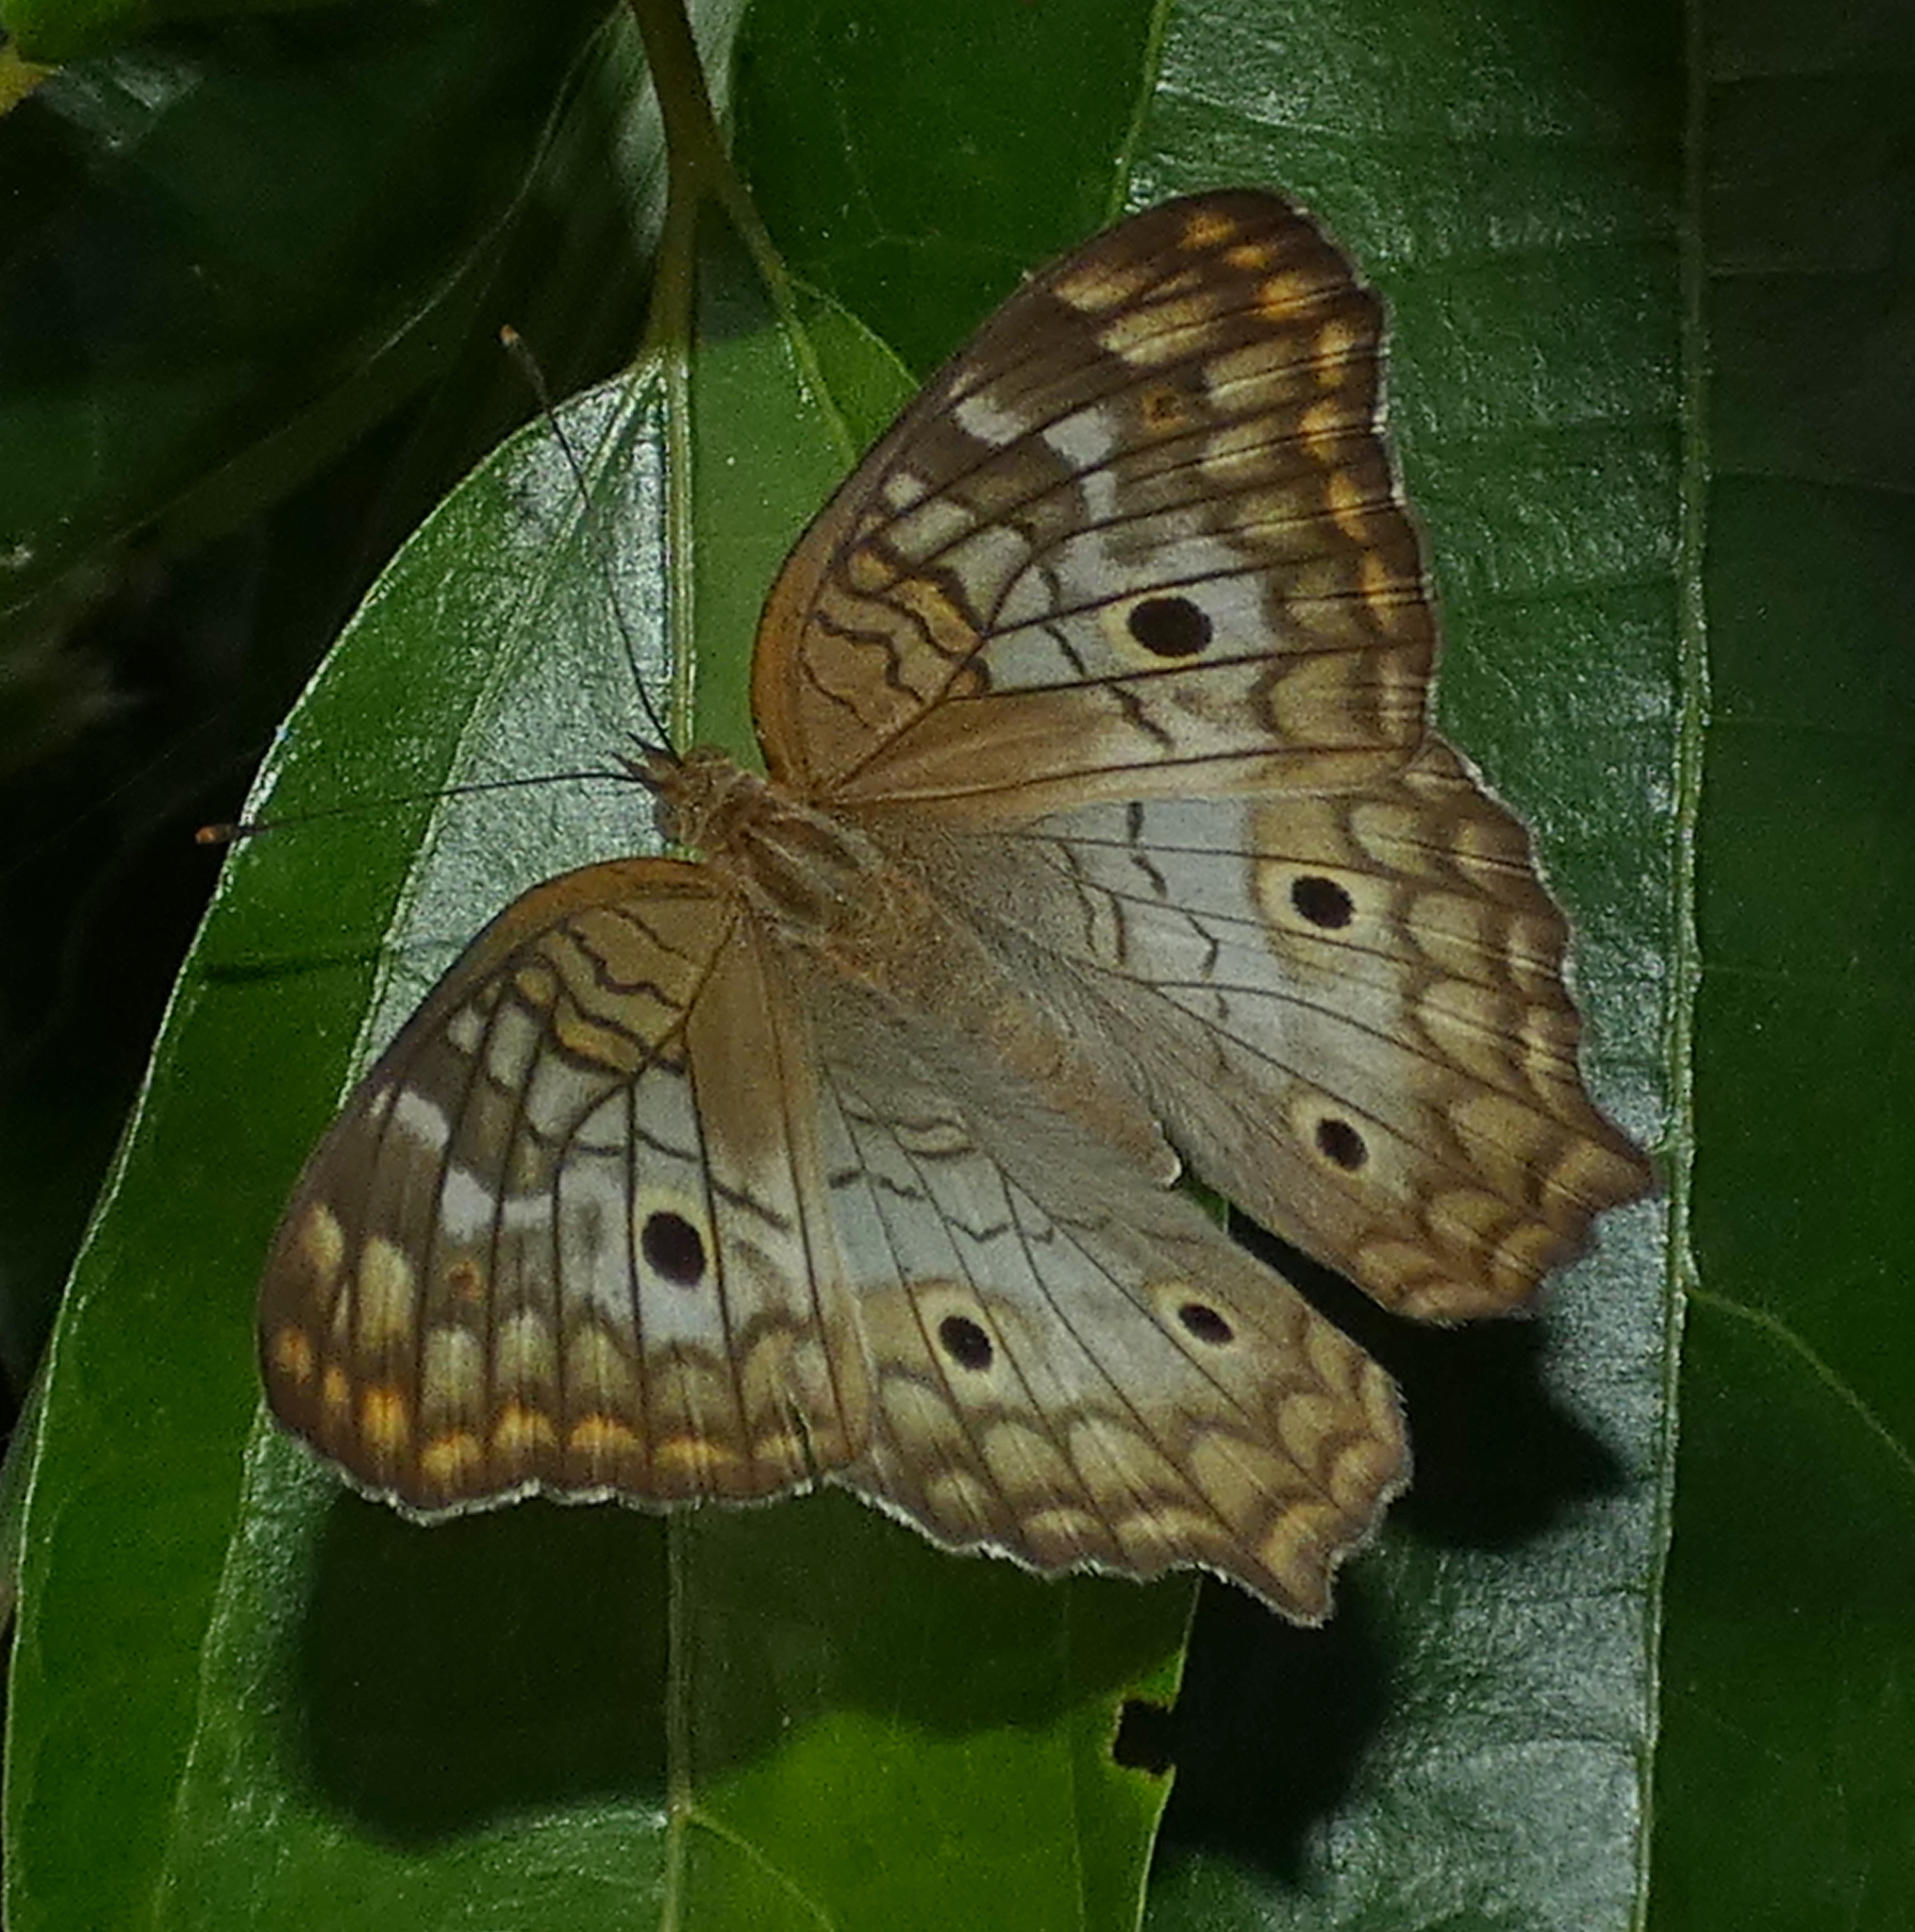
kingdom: Animalia
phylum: Arthropoda
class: Insecta
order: Lepidoptera
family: Nymphalidae
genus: Anartia
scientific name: Anartia jatrophae
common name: White peacock
